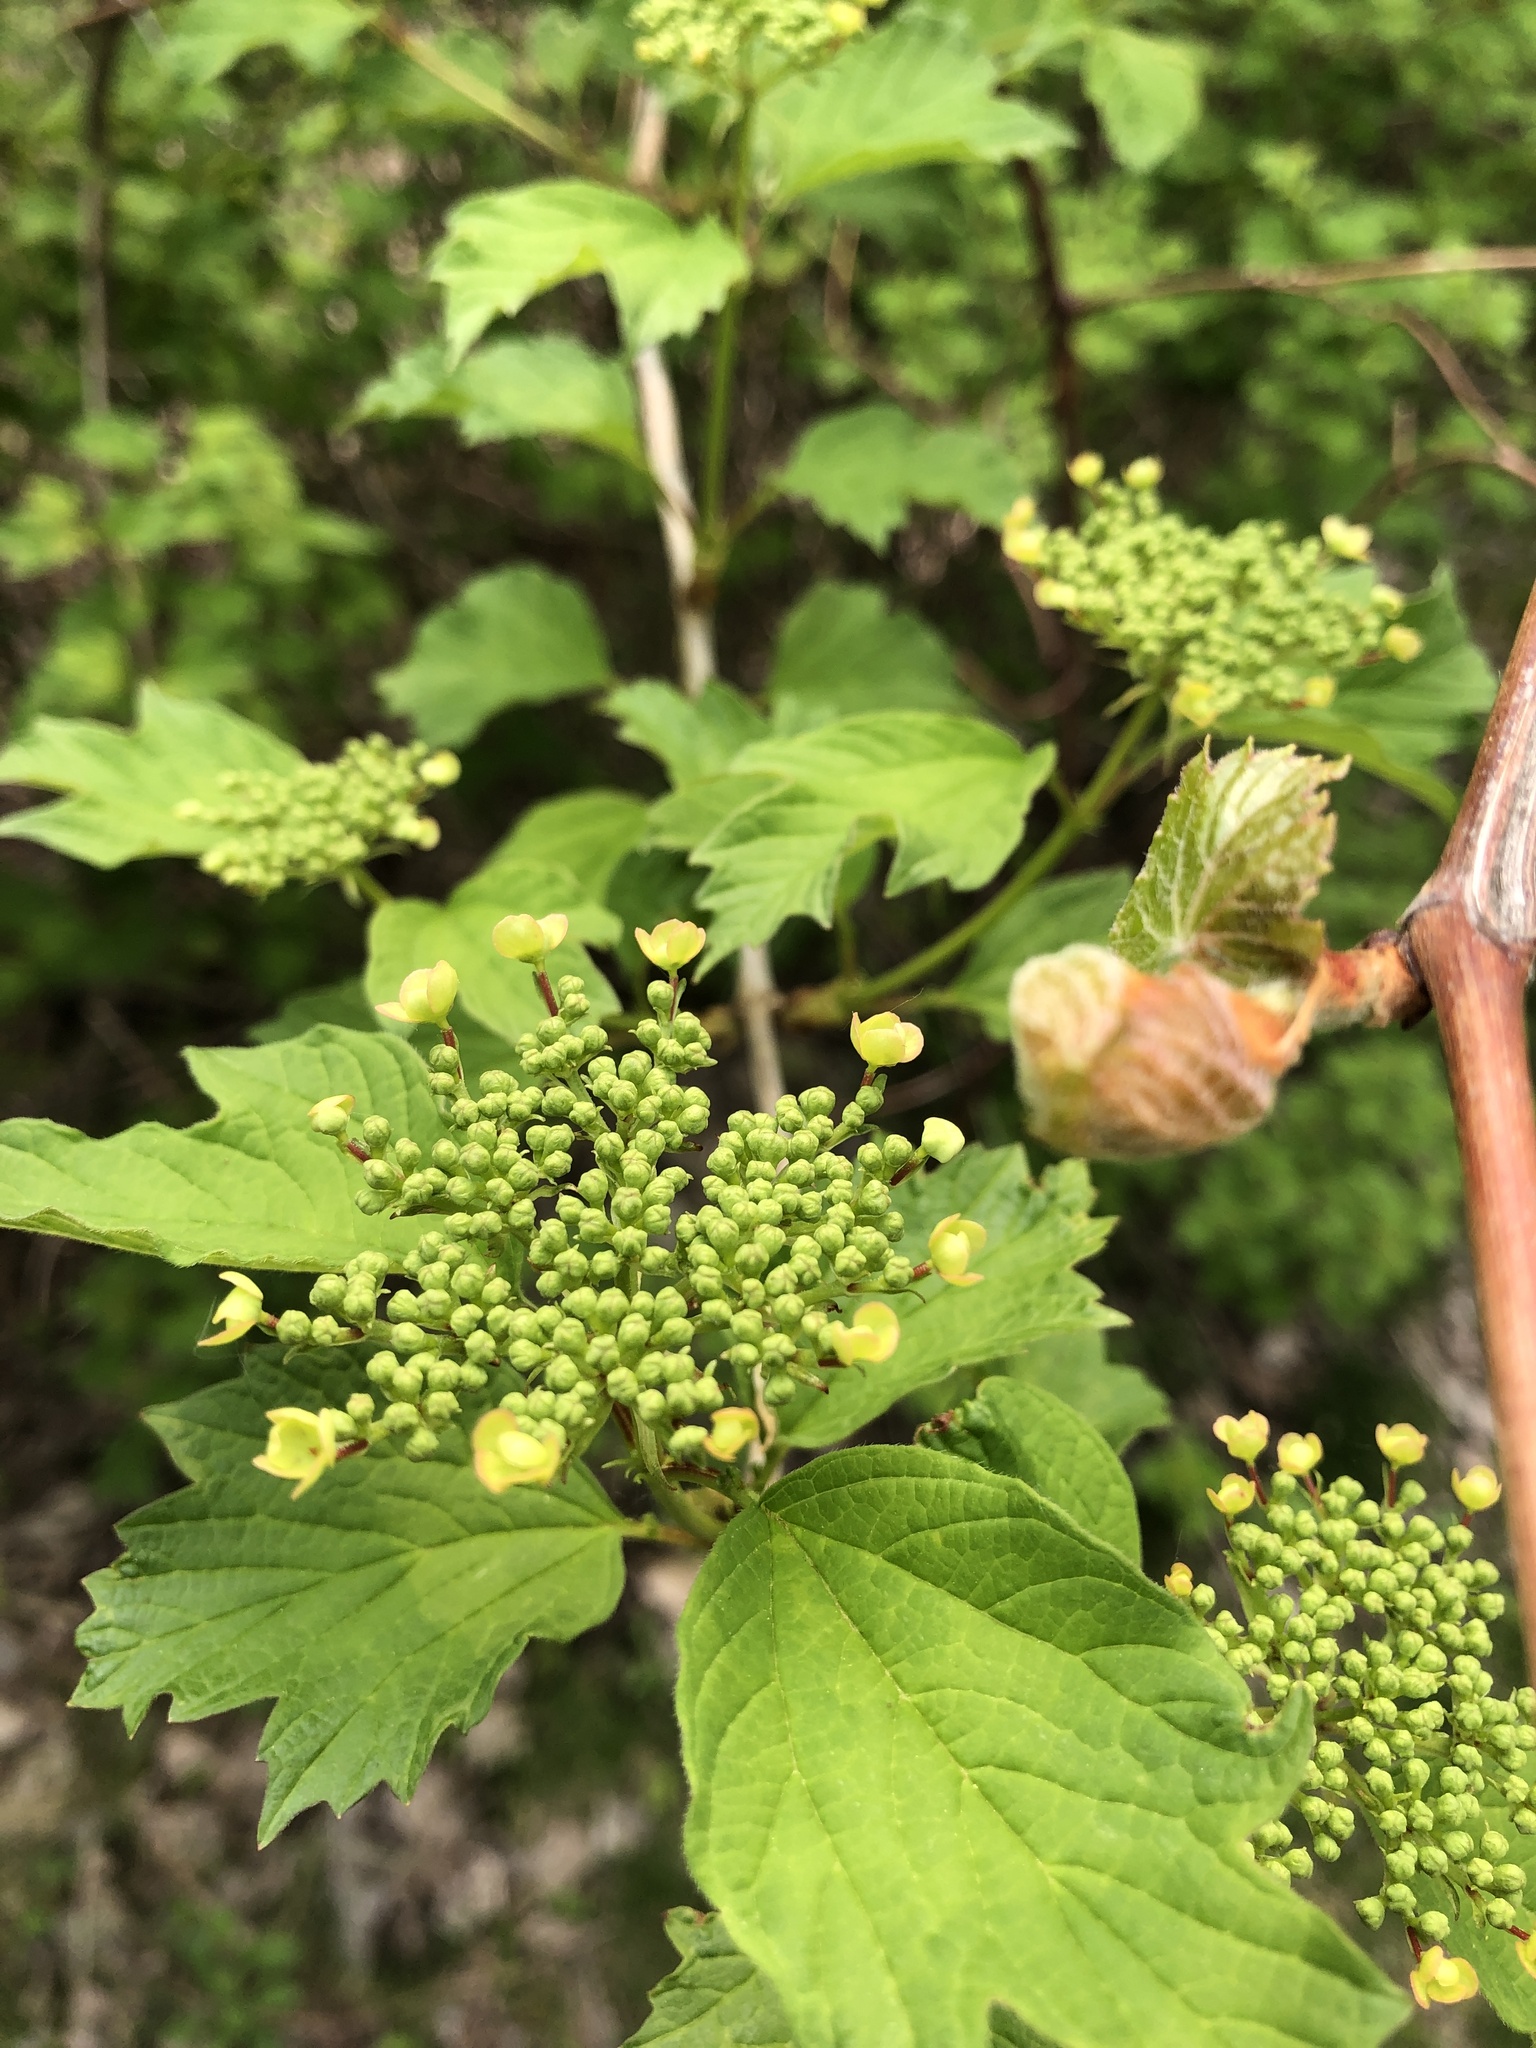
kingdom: Plantae
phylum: Tracheophyta
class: Magnoliopsida
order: Dipsacales
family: Viburnaceae
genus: Viburnum
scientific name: Viburnum opulus
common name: Guelder-rose
